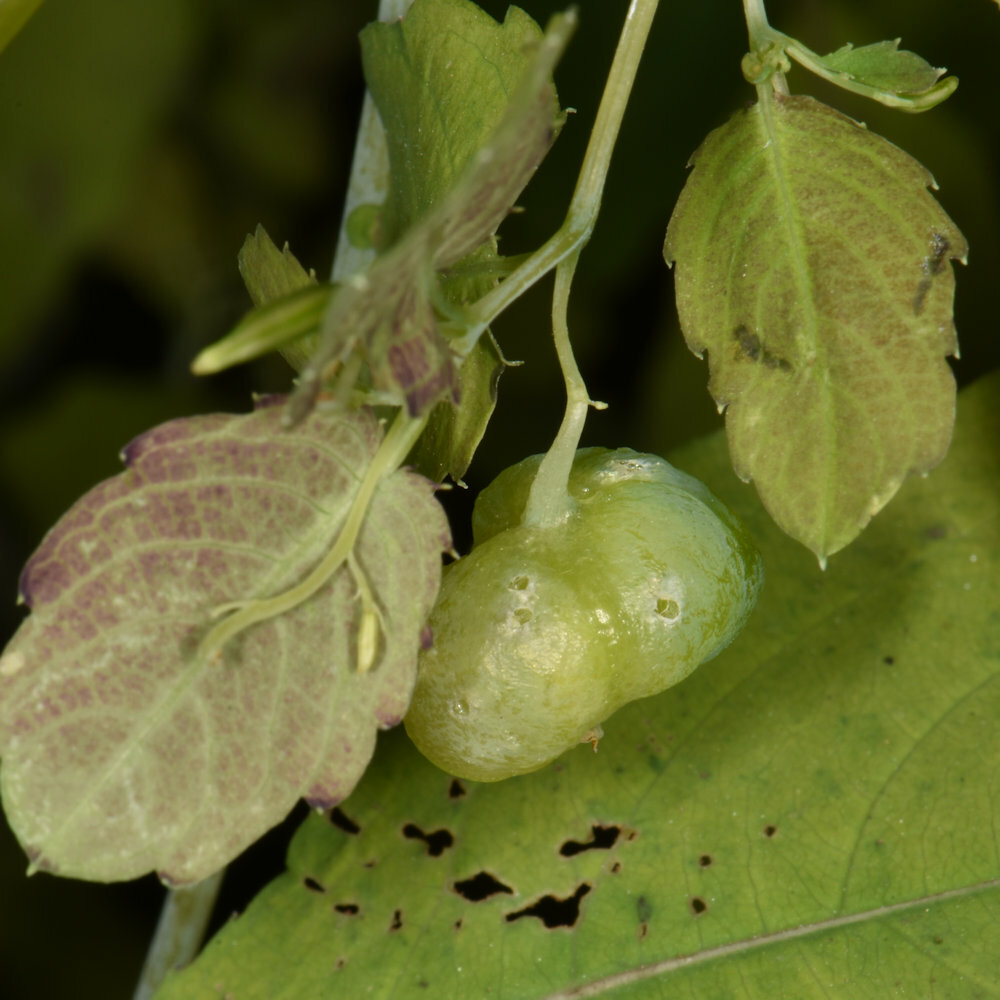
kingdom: Animalia
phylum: Arthropoda
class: Insecta
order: Diptera
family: Cecidomyiidae
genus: Schizomyia
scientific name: Schizomyia impatientis
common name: Jewelweed gall midge
